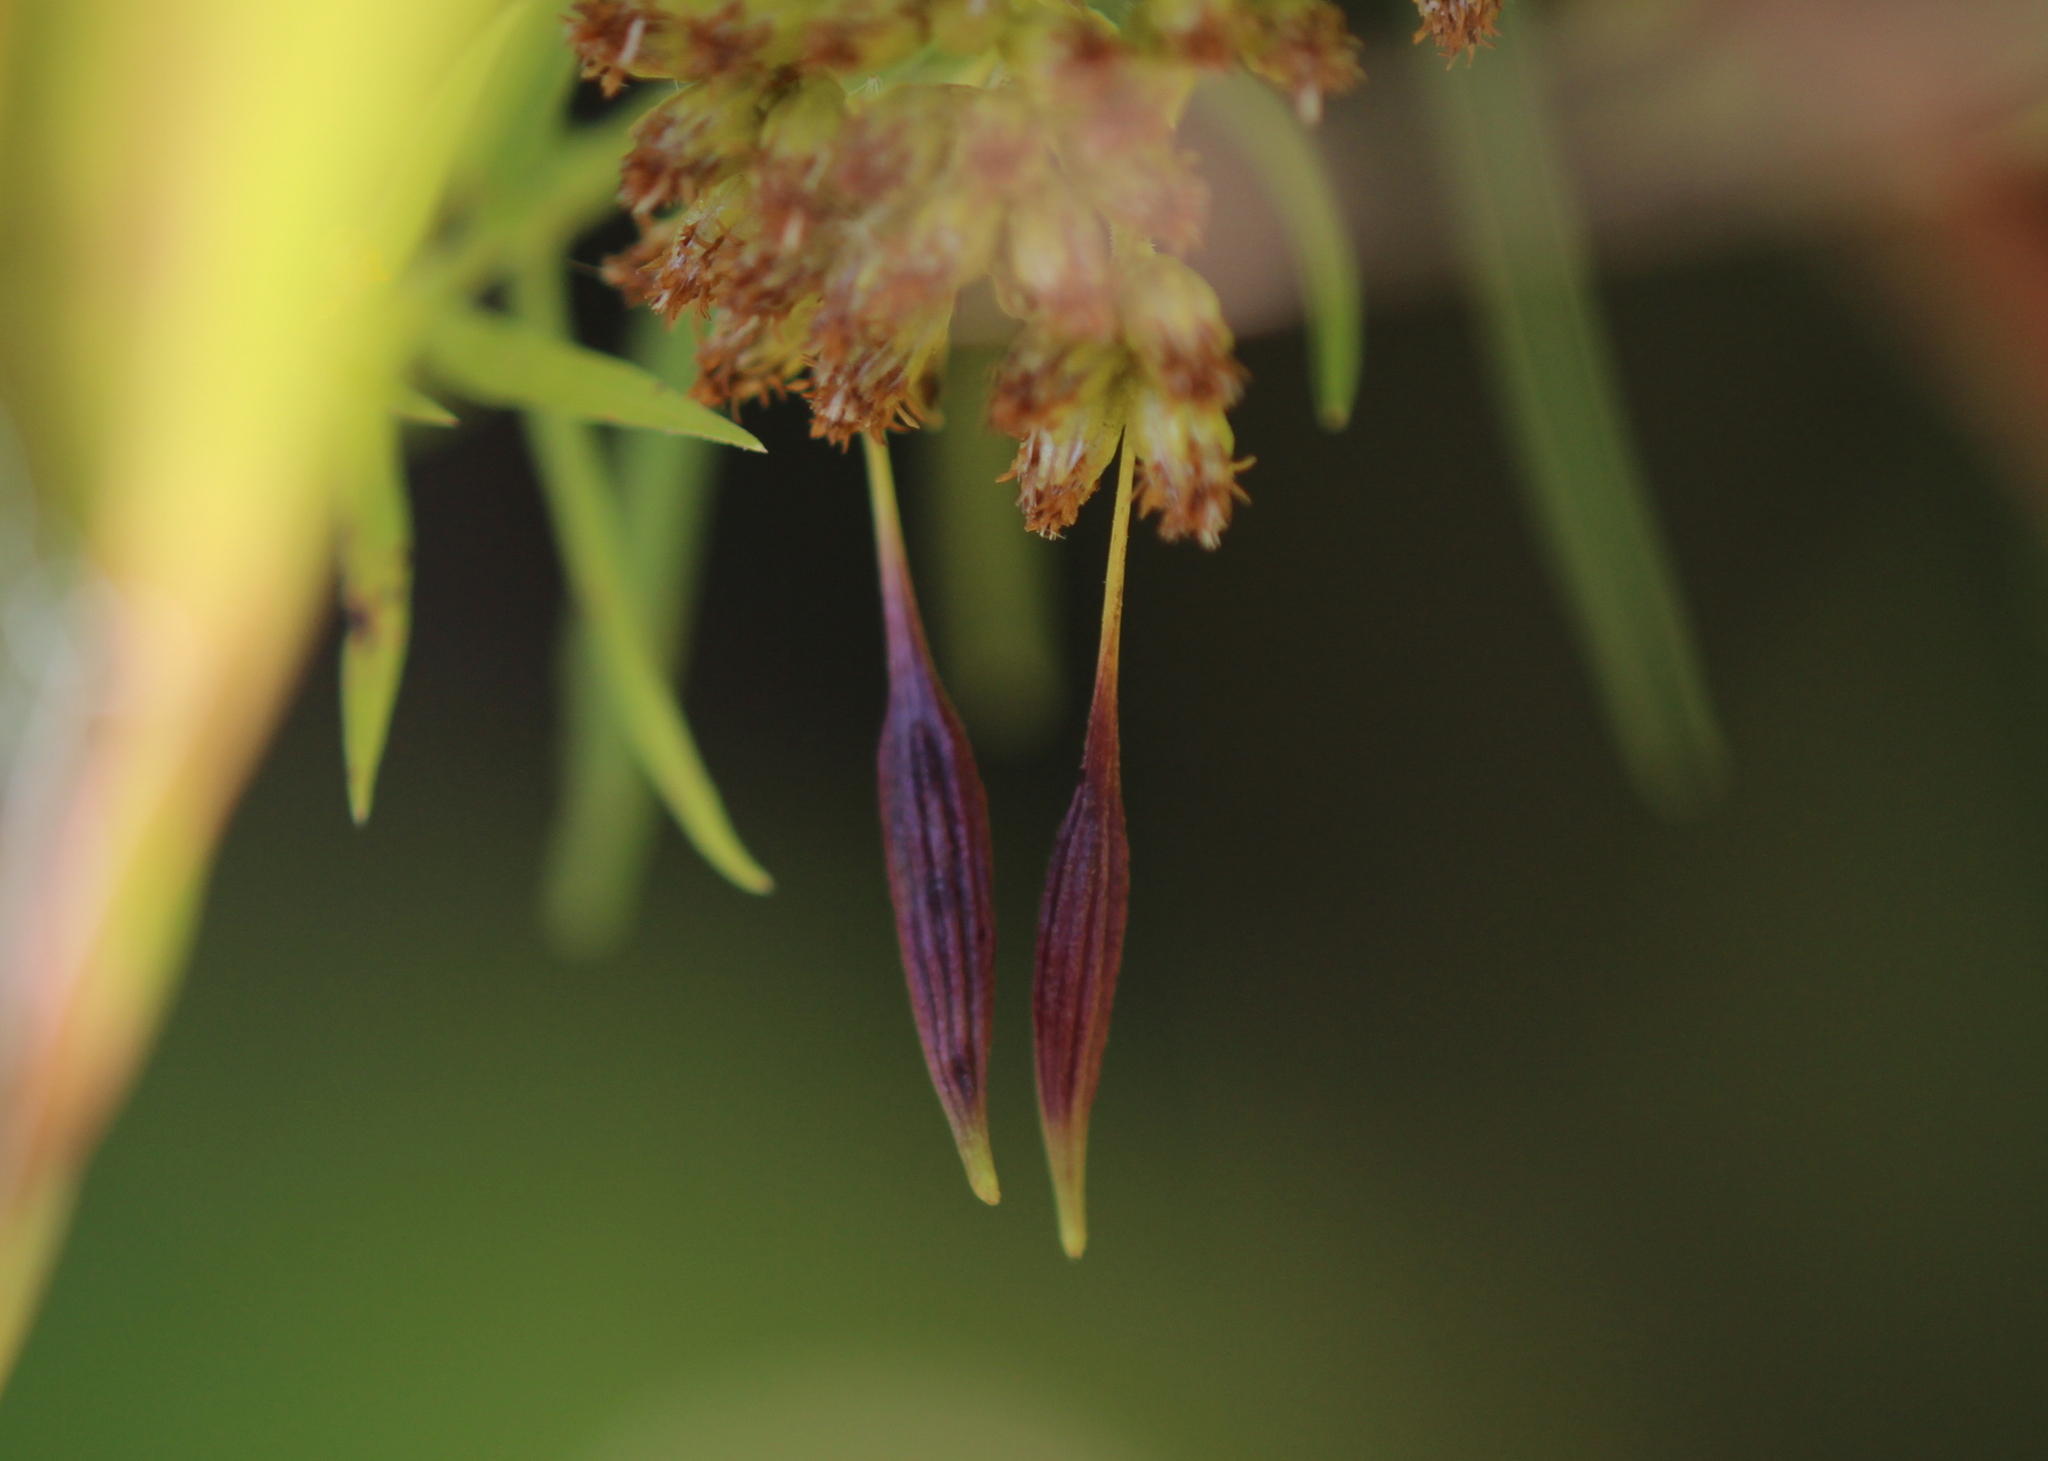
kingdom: Animalia
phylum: Arthropoda
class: Insecta
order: Diptera
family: Cecidomyiidae
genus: Rhopalomyia
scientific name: Rhopalomyia pedicellata
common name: Goldentop pedicellate gall midge
